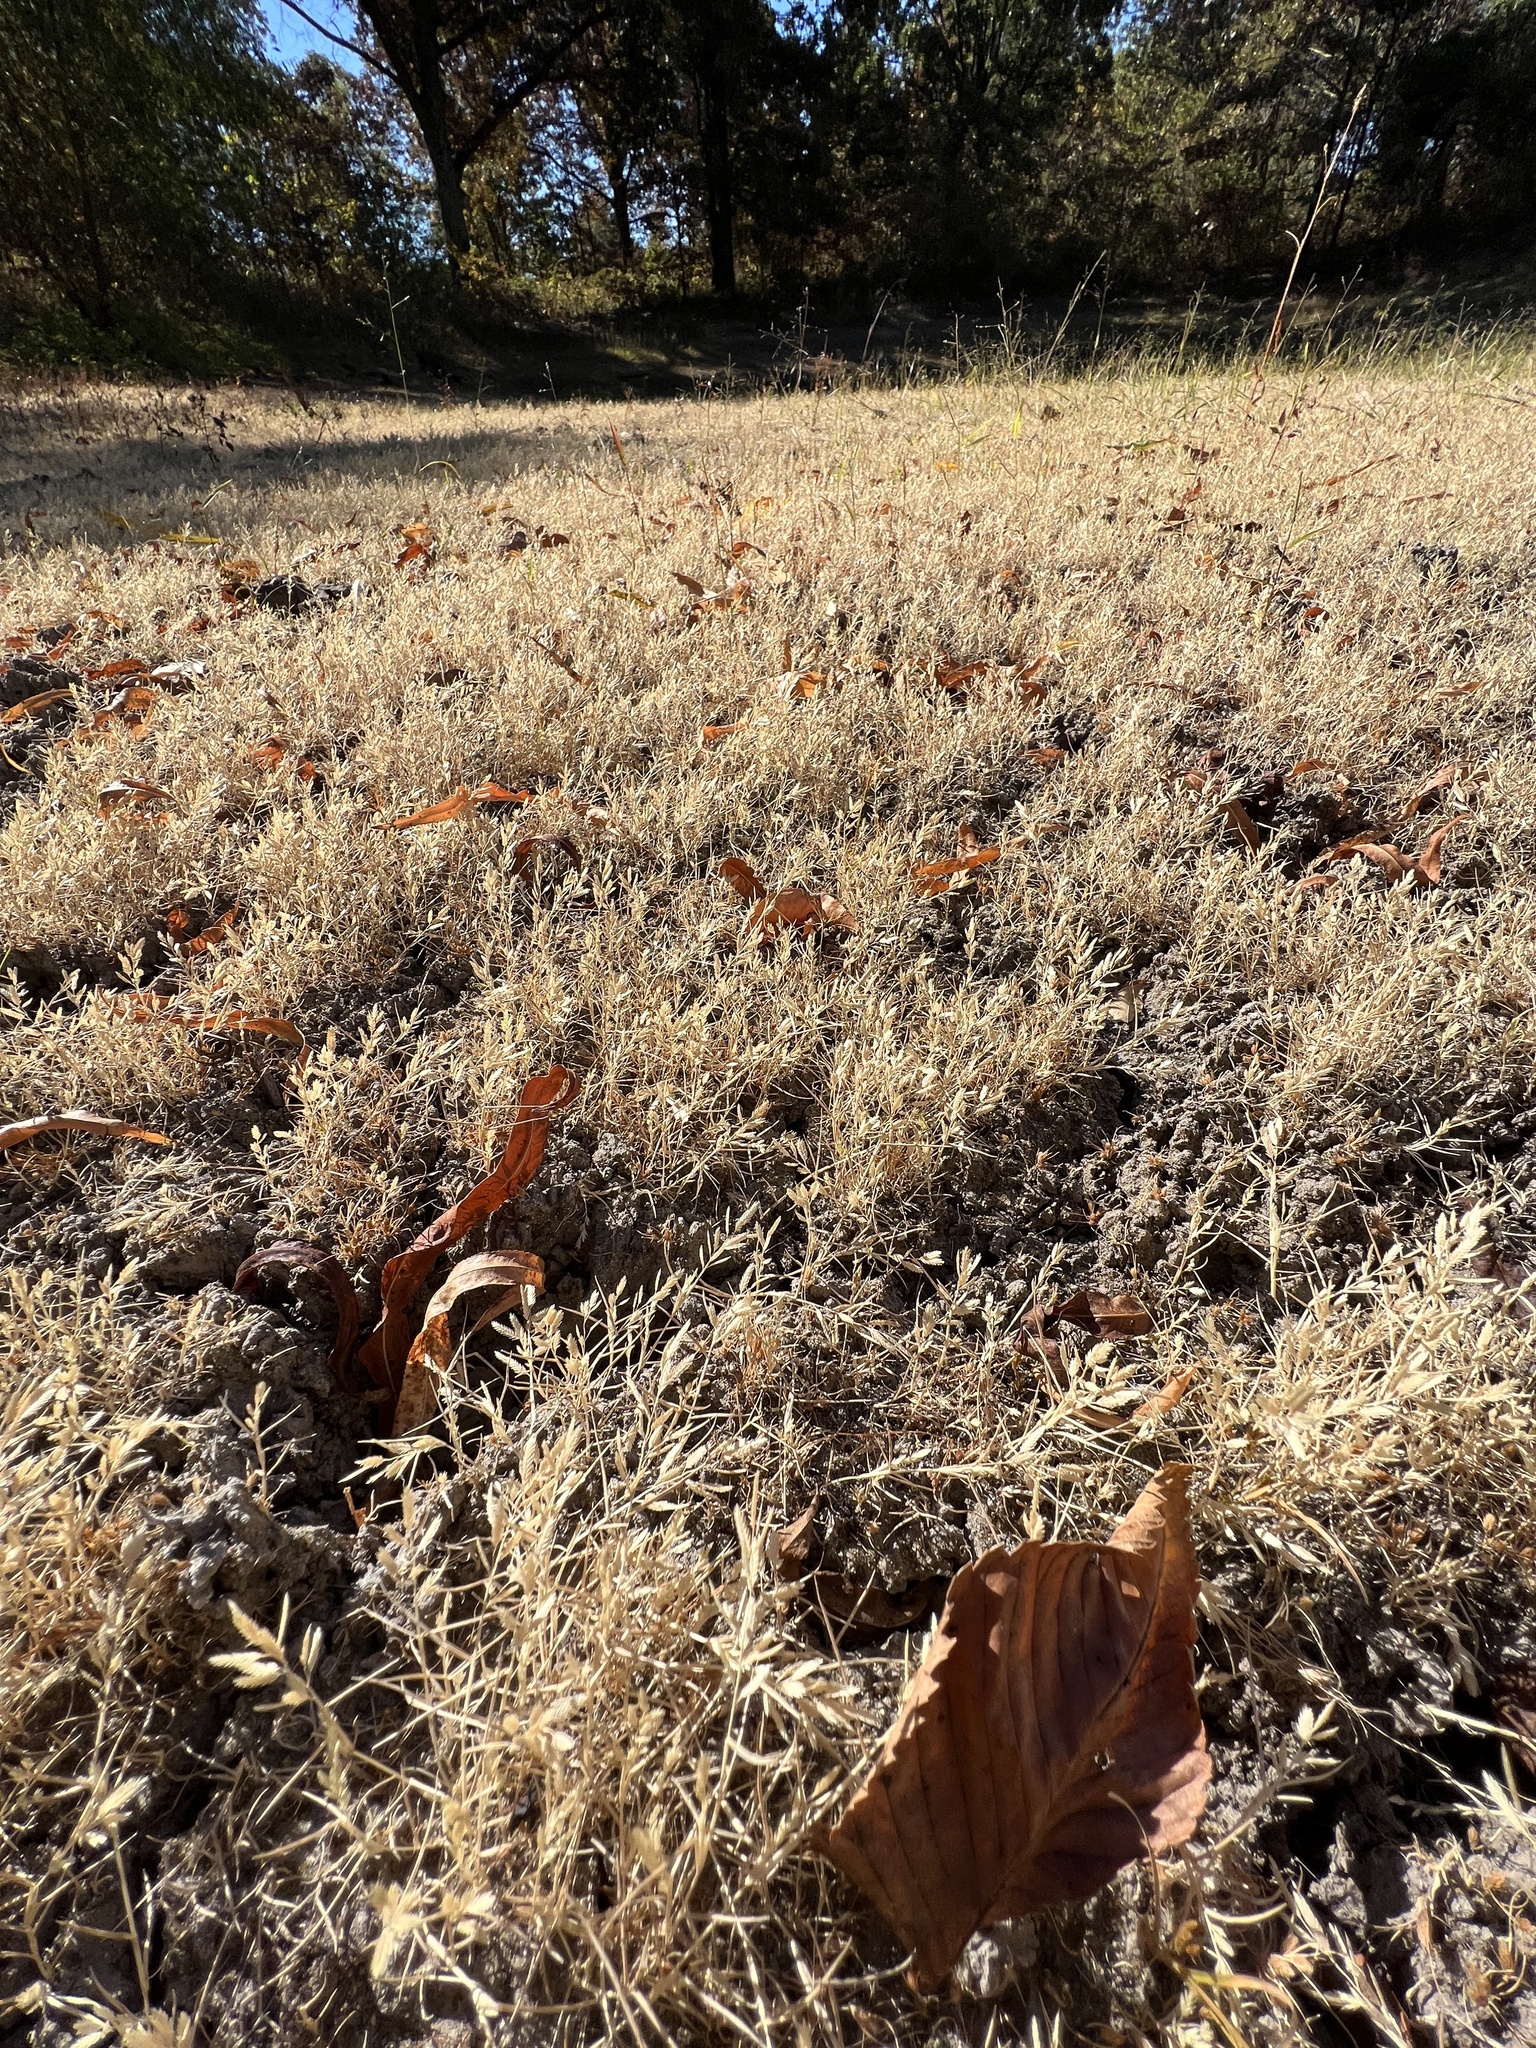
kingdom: Plantae
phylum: Tracheophyta
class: Liliopsida
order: Poales
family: Poaceae
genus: Eragrostis
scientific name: Eragrostis cilianensis
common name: Stinkgrass
